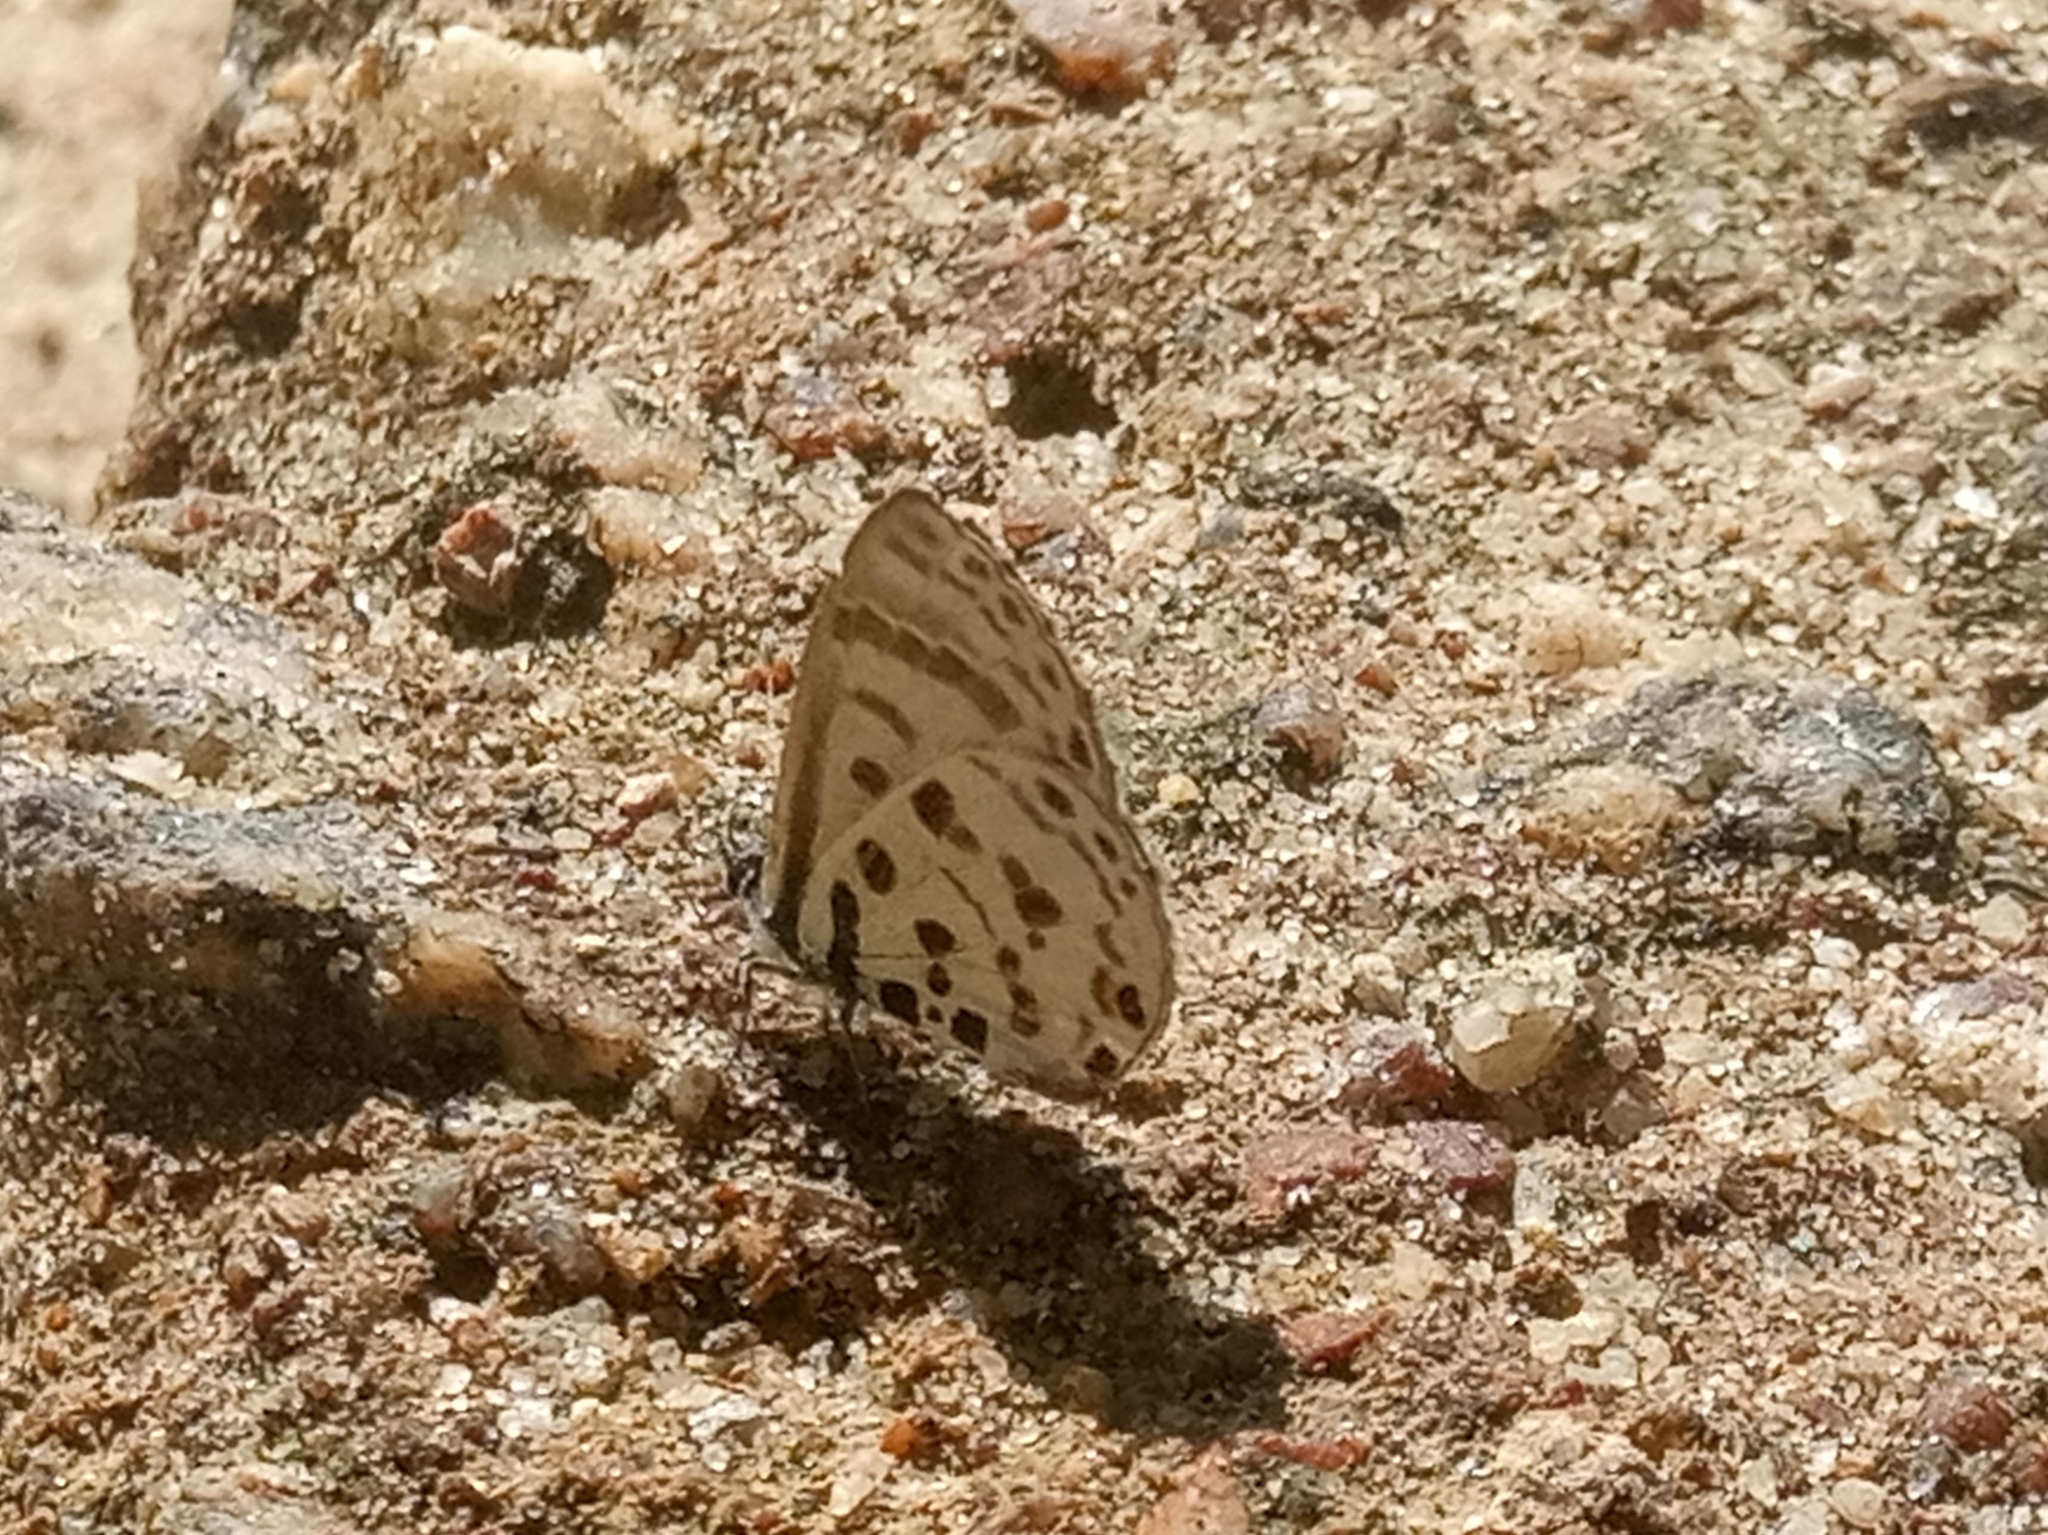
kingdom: Animalia
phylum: Arthropoda
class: Insecta
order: Lepidoptera
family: Lycaenidae
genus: Azanus
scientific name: Azanus mirza
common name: Mirza babul blue
